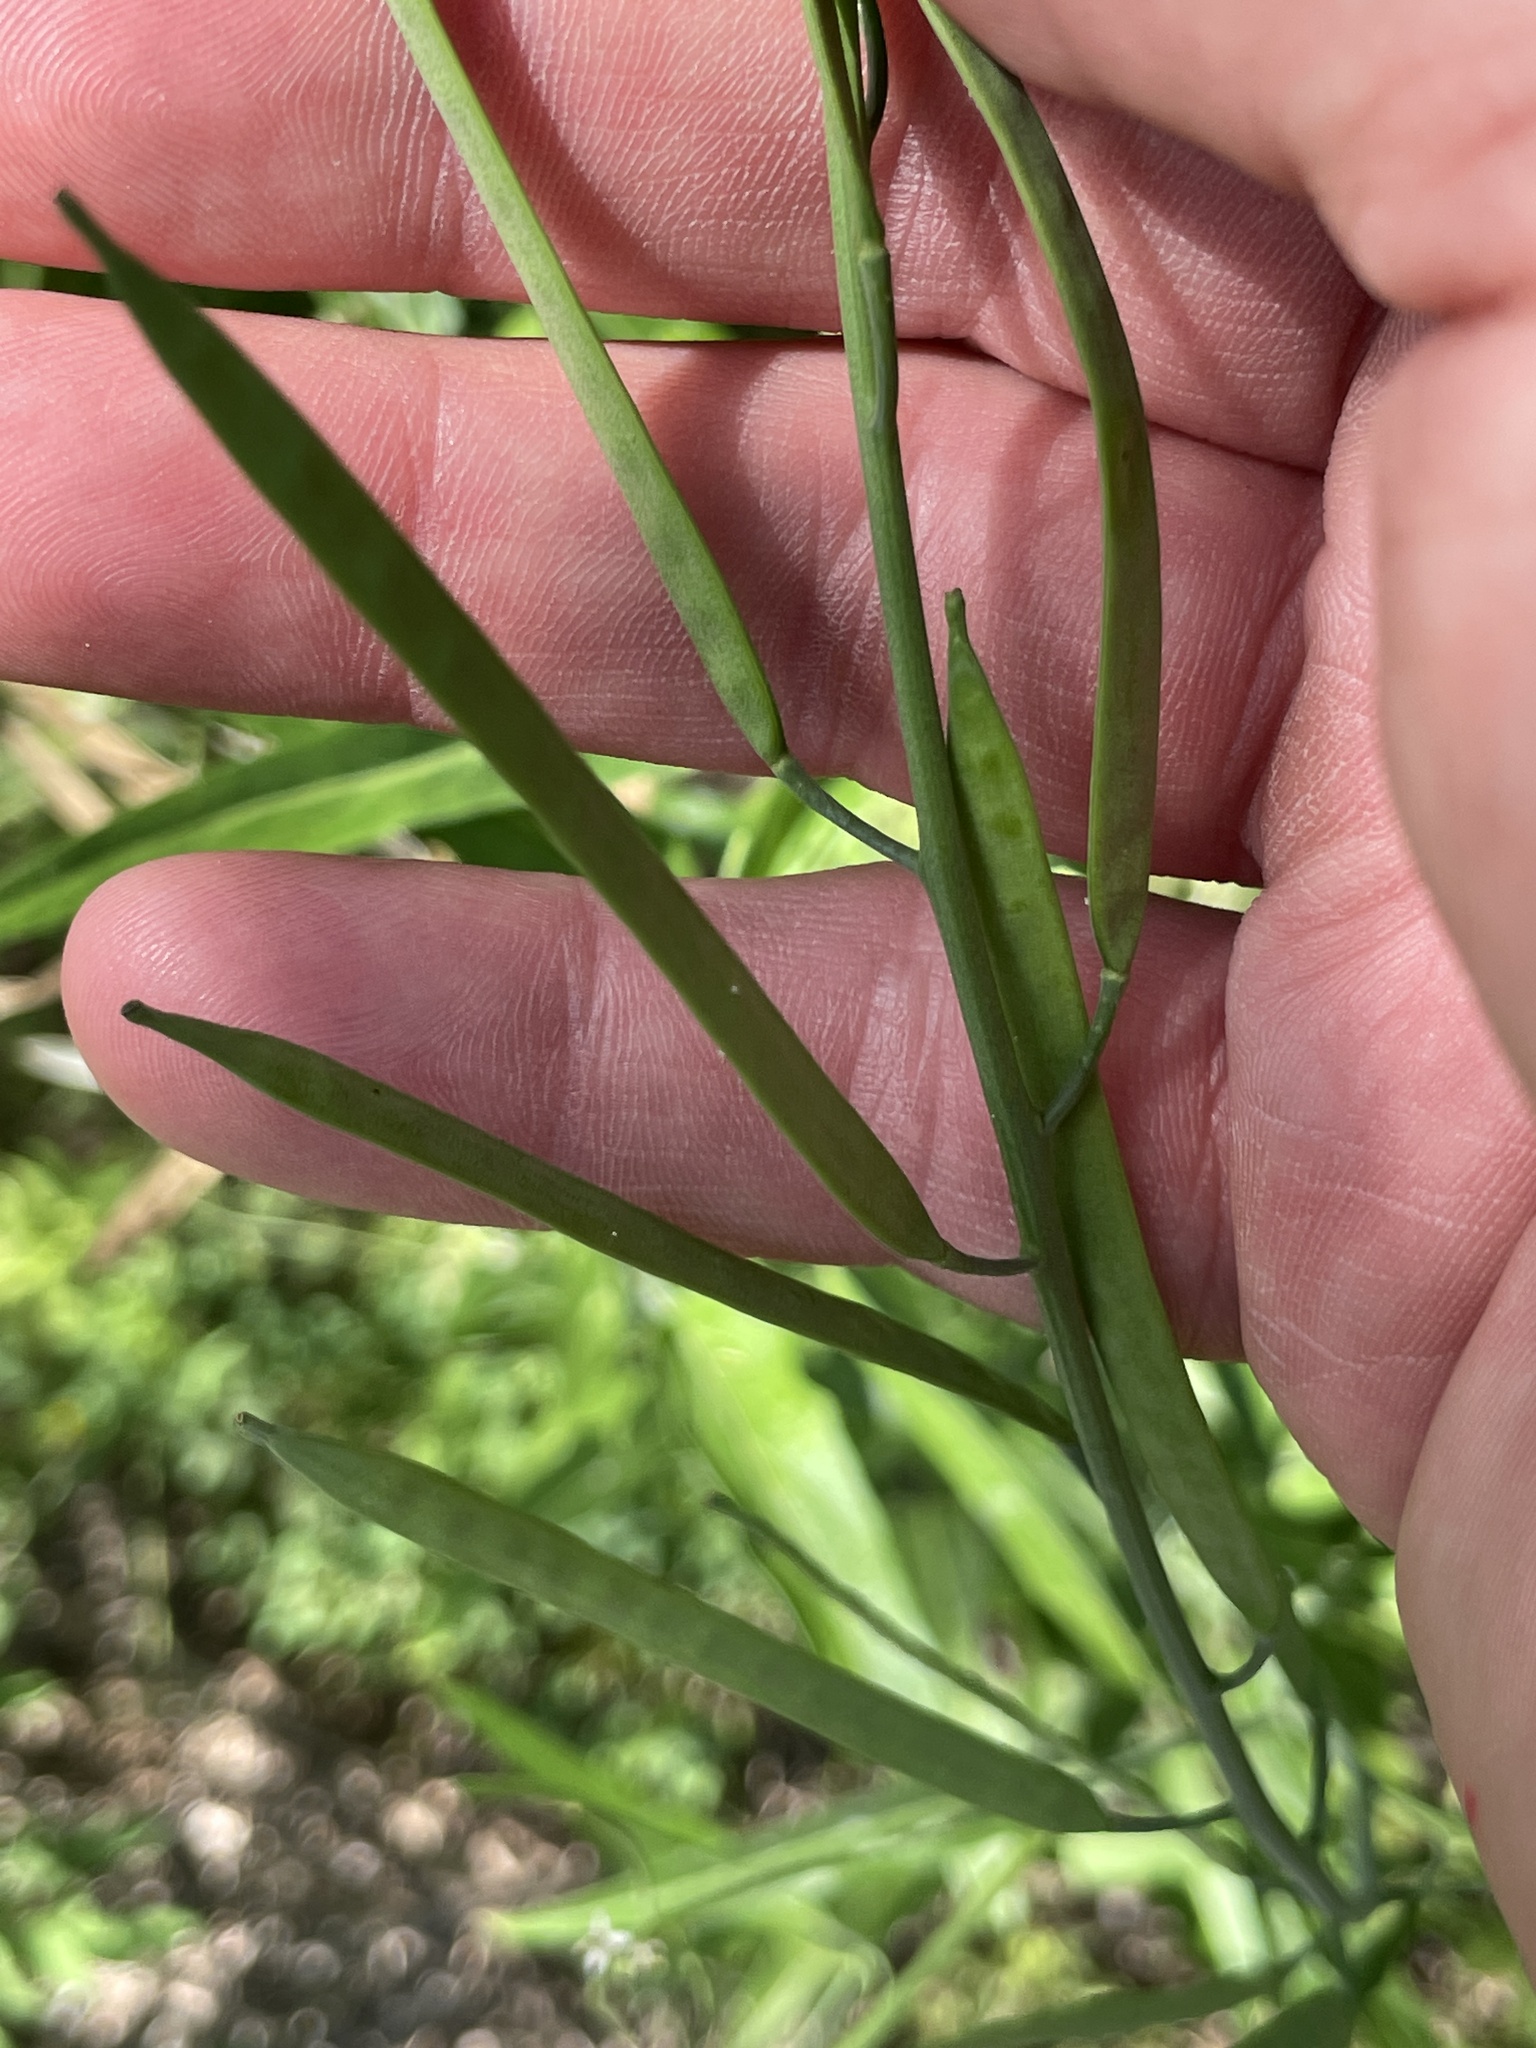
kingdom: Plantae
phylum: Tracheophyta
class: Magnoliopsida
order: Brassicales
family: Brassicaceae
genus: Streptanthus
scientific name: Streptanthus petiolaris
